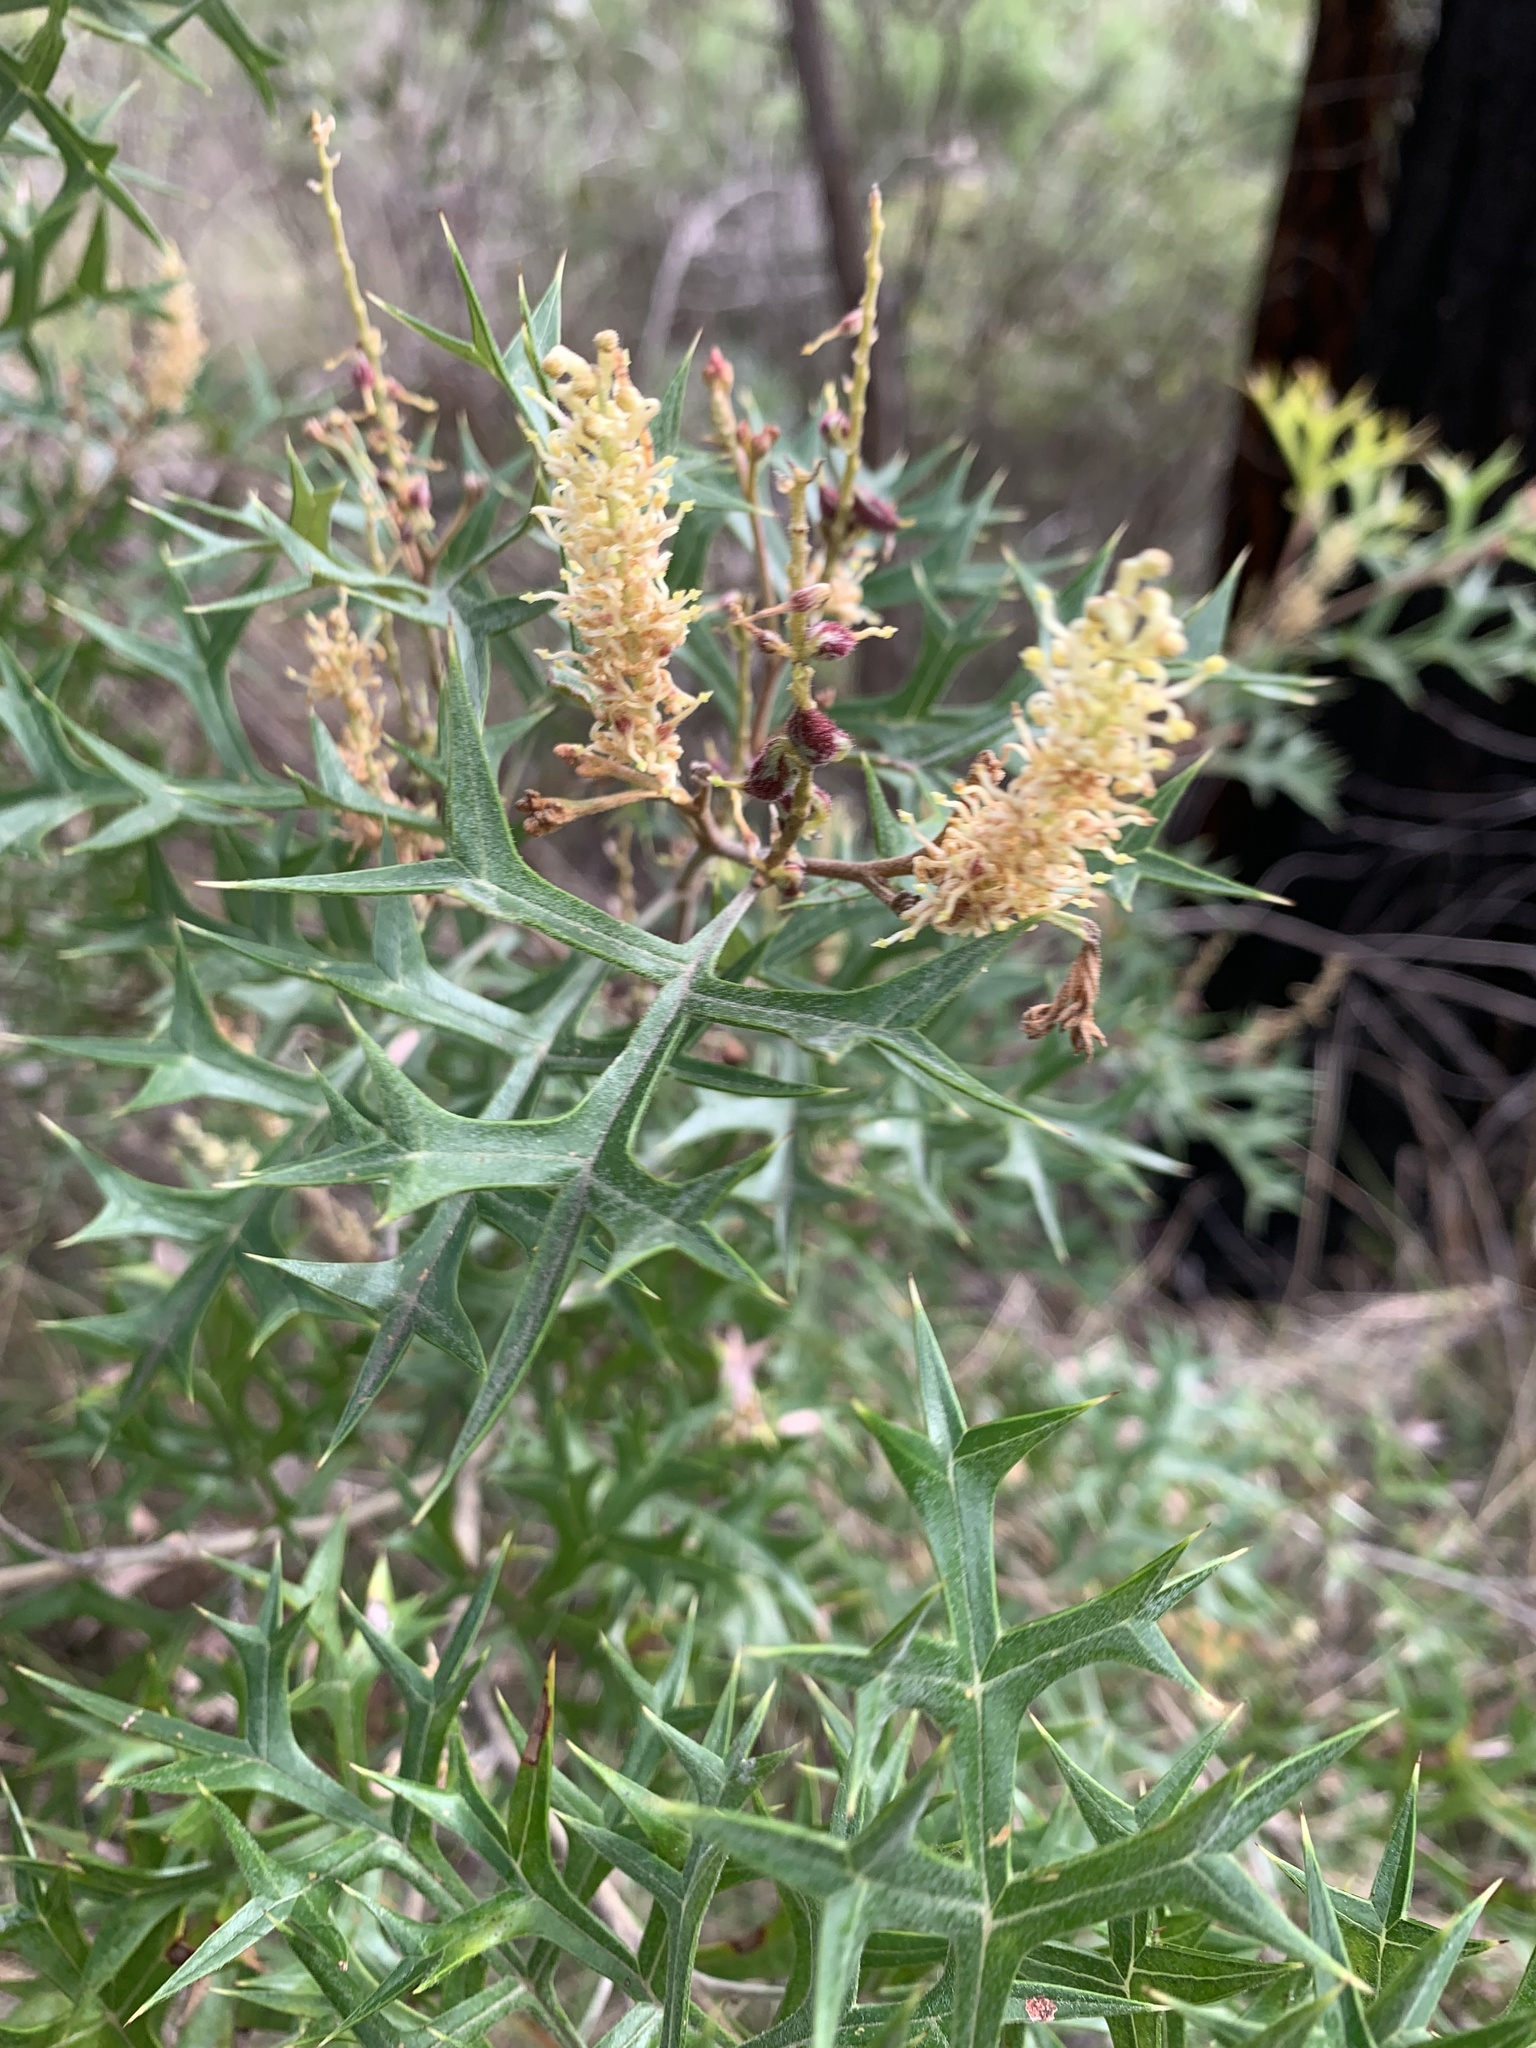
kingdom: Plantae
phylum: Tracheophyta
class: Magnoliopsida
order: Proteales
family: Proteaceae
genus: Grevillea
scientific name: Grevillea ramosissima
